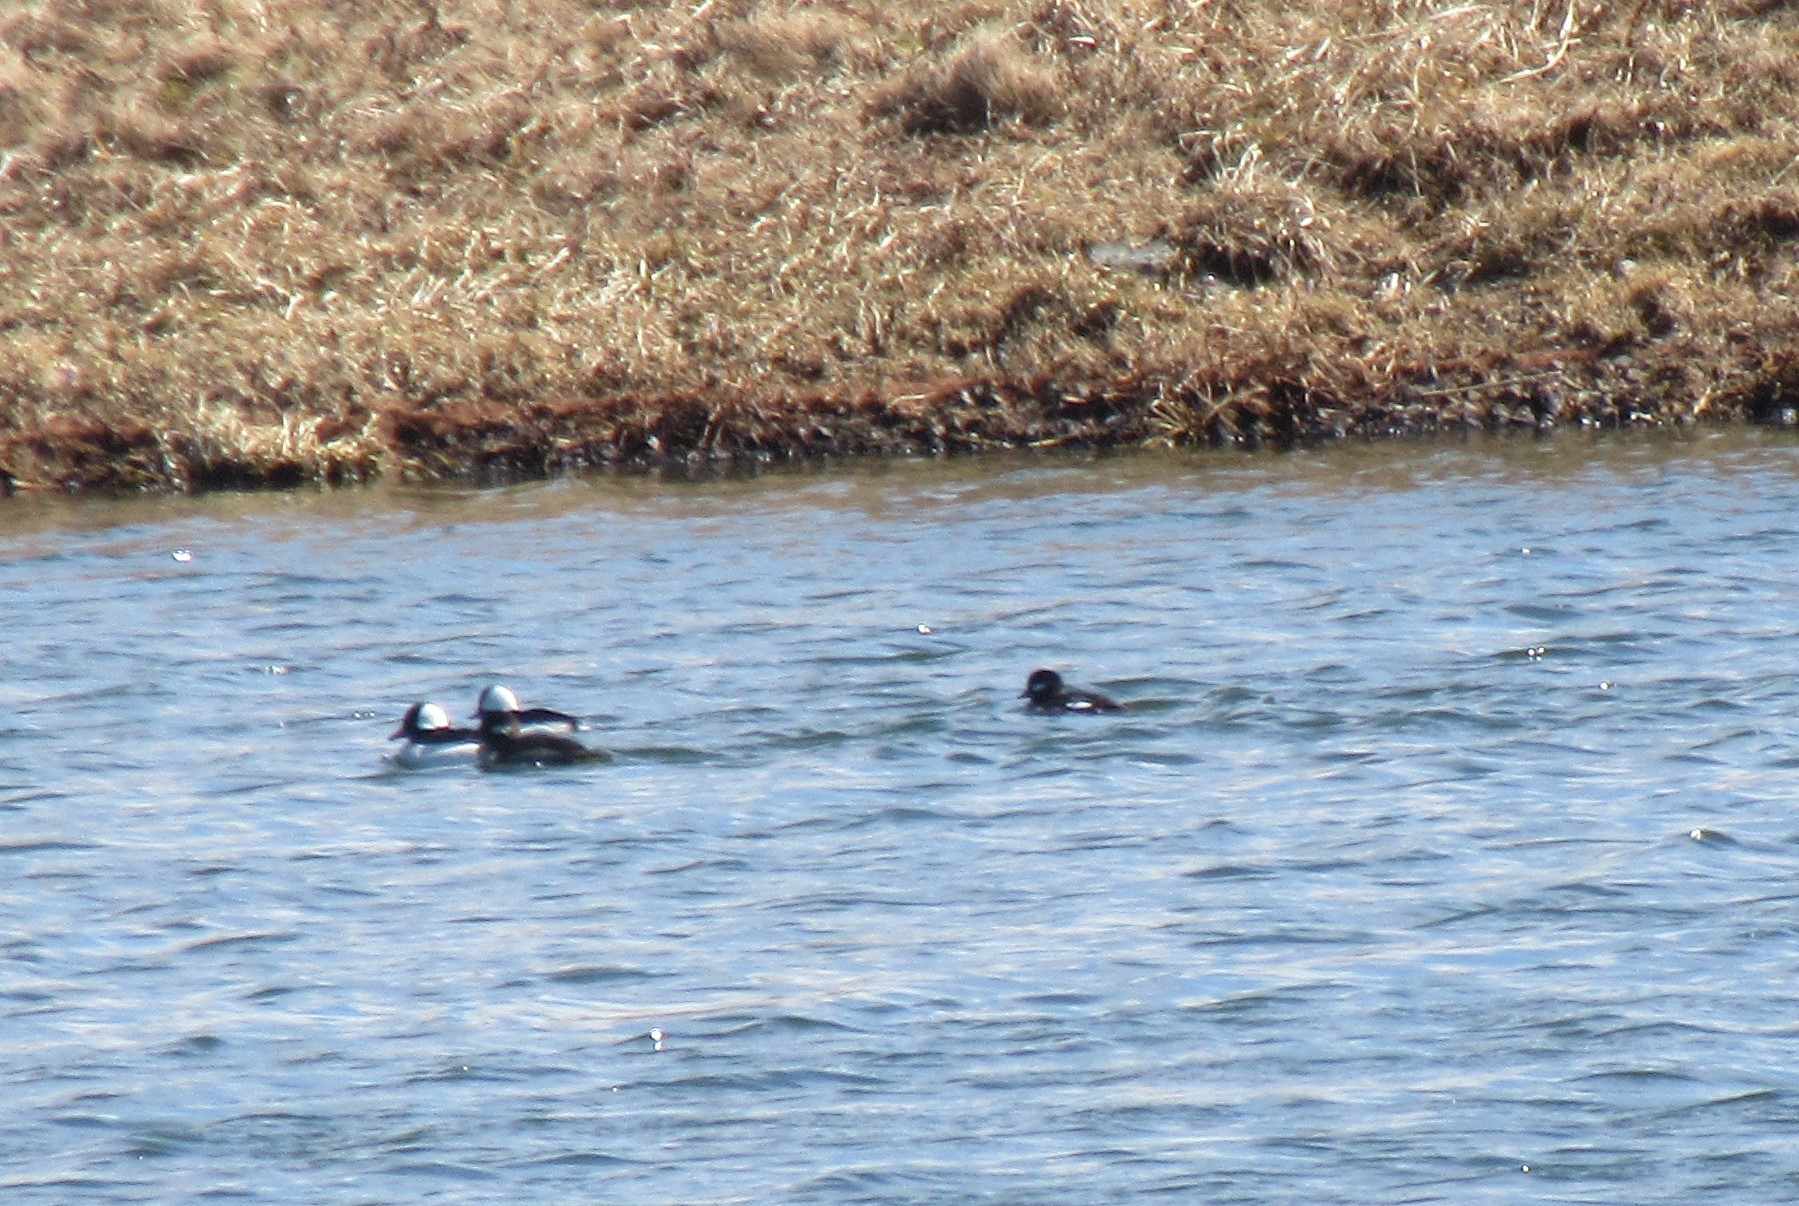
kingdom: Animalia
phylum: Chordata
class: Aves
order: Anseriformes
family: Anatidae
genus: Bucephala
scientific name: Bucephala albeola
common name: Bufflehead
